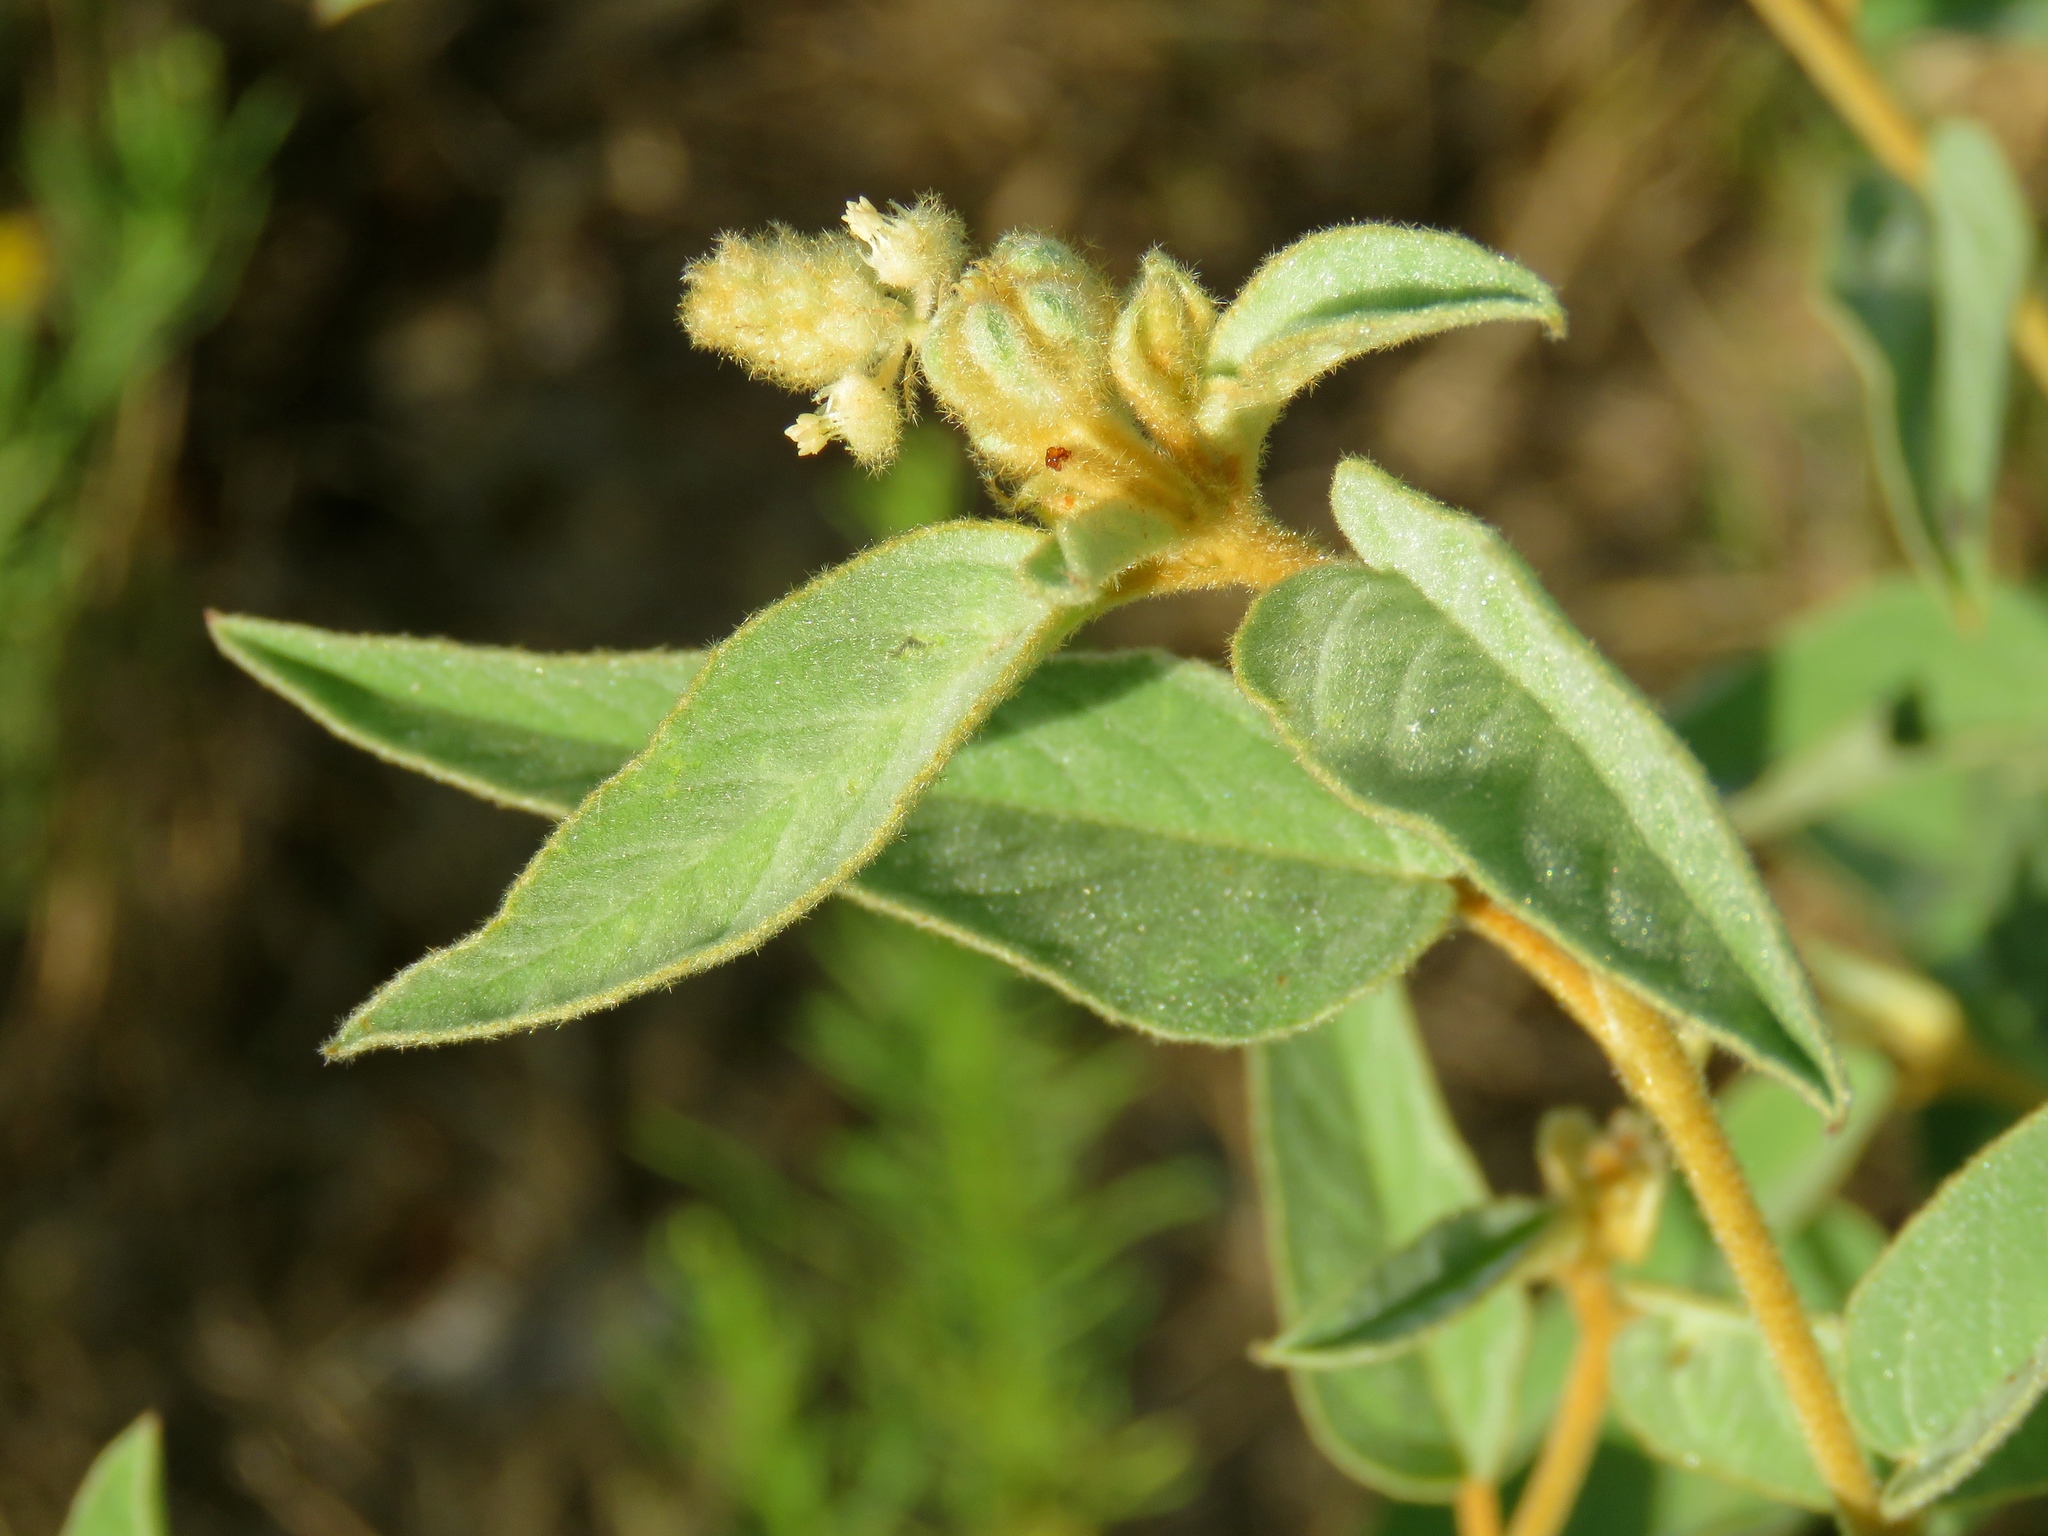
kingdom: Plantae
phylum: Tracheophyta
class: Magnoliopsida
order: Malpighiales
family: Euphorbiaceae
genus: Croton
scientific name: Croton lindheimeri
